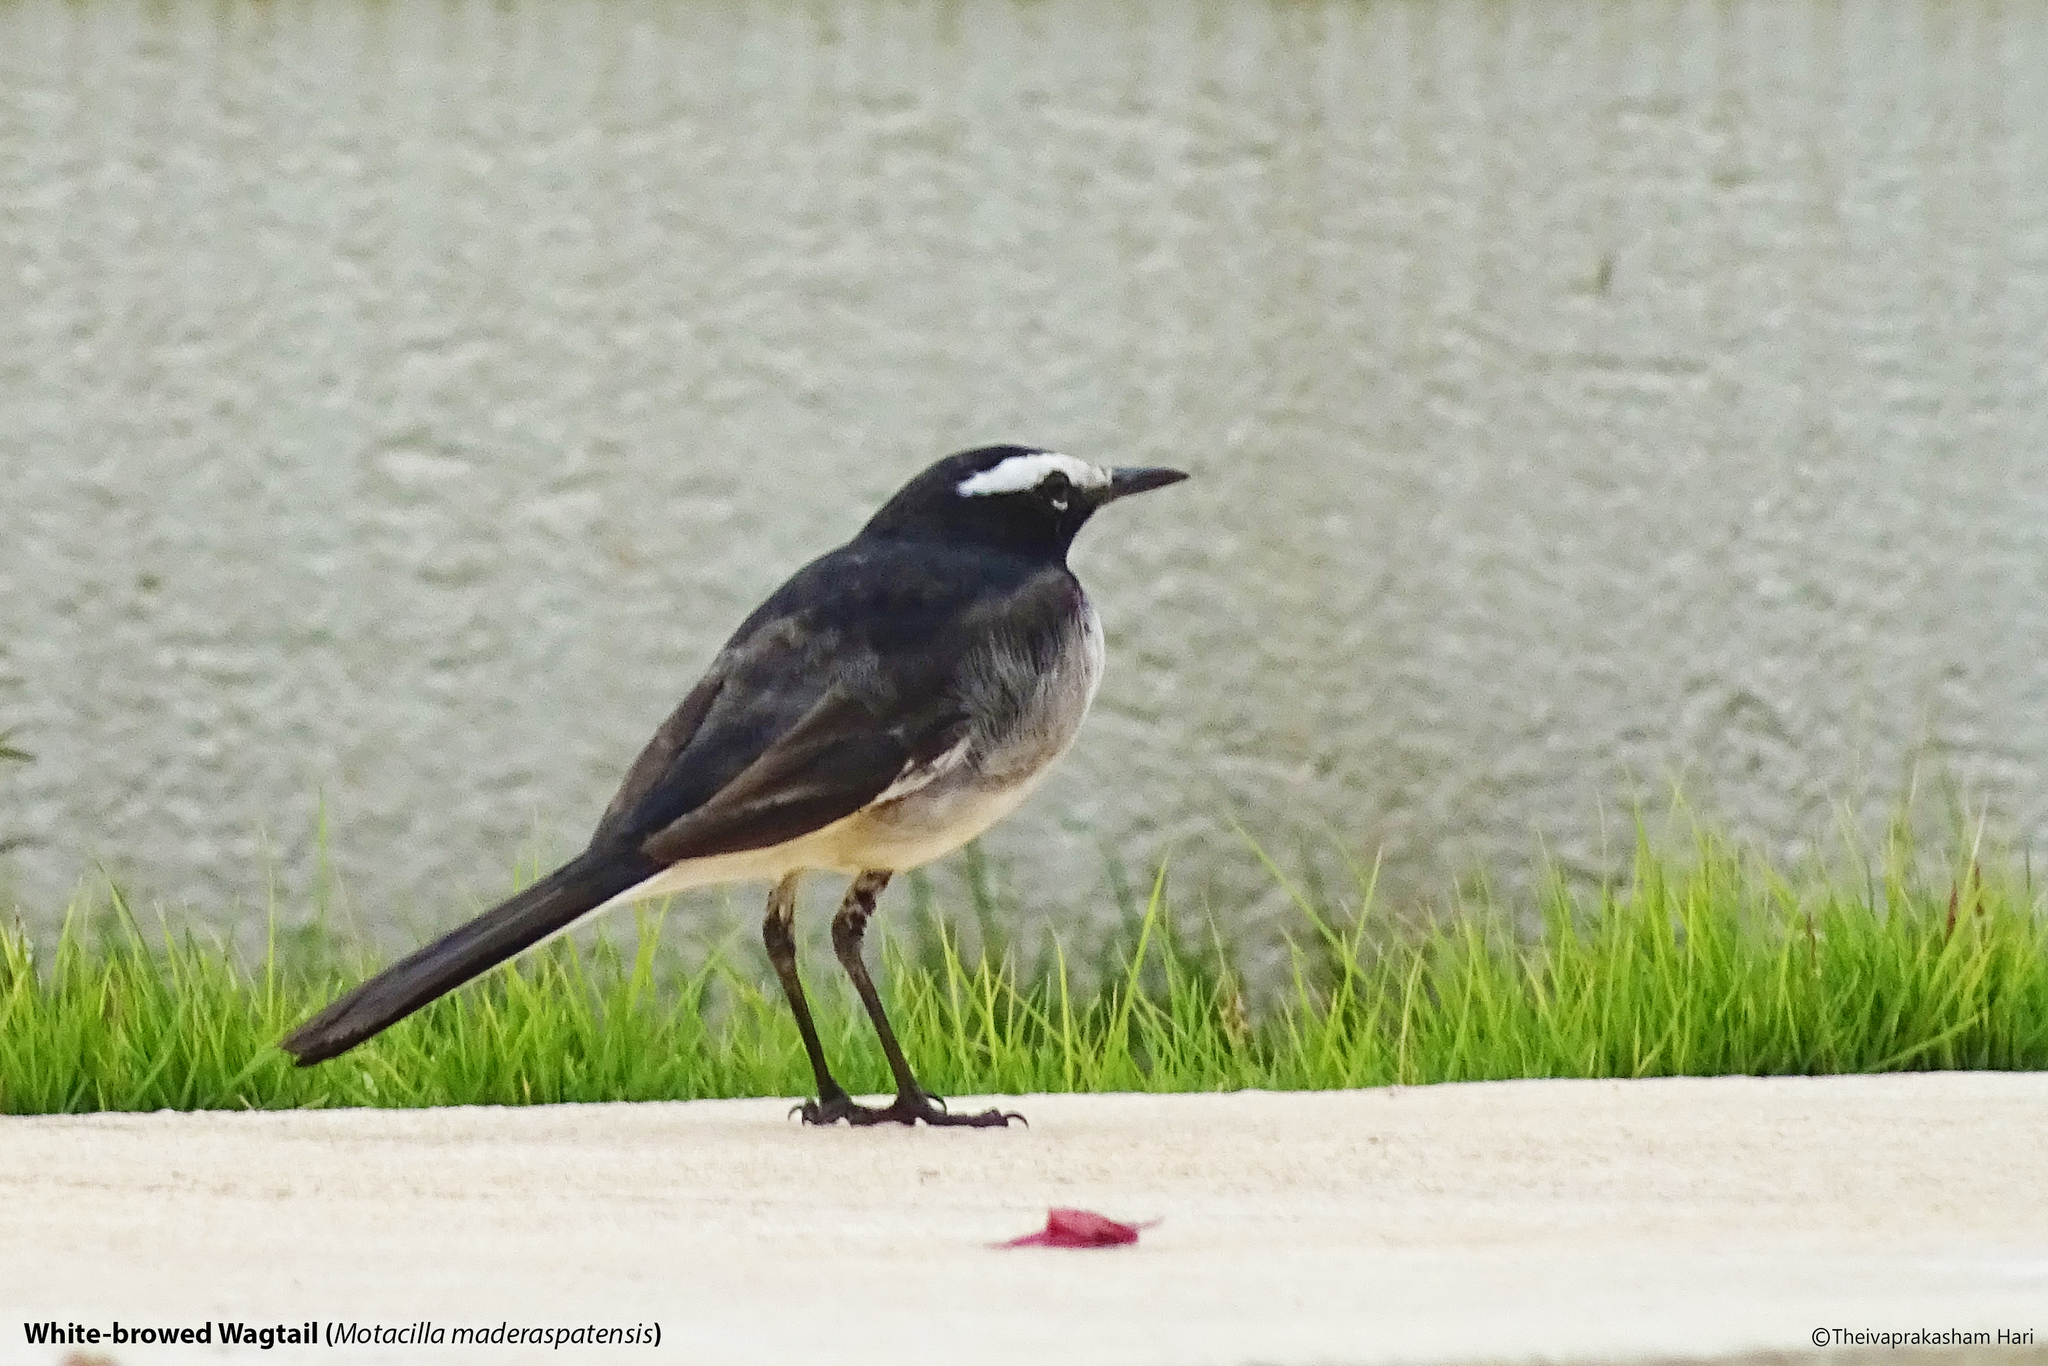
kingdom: Animalia
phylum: Chordata
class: Aves
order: Passeriformes
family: Motacillidae
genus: Motacilla
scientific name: Motacilla maderaspatensis
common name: White-browed wagtail
